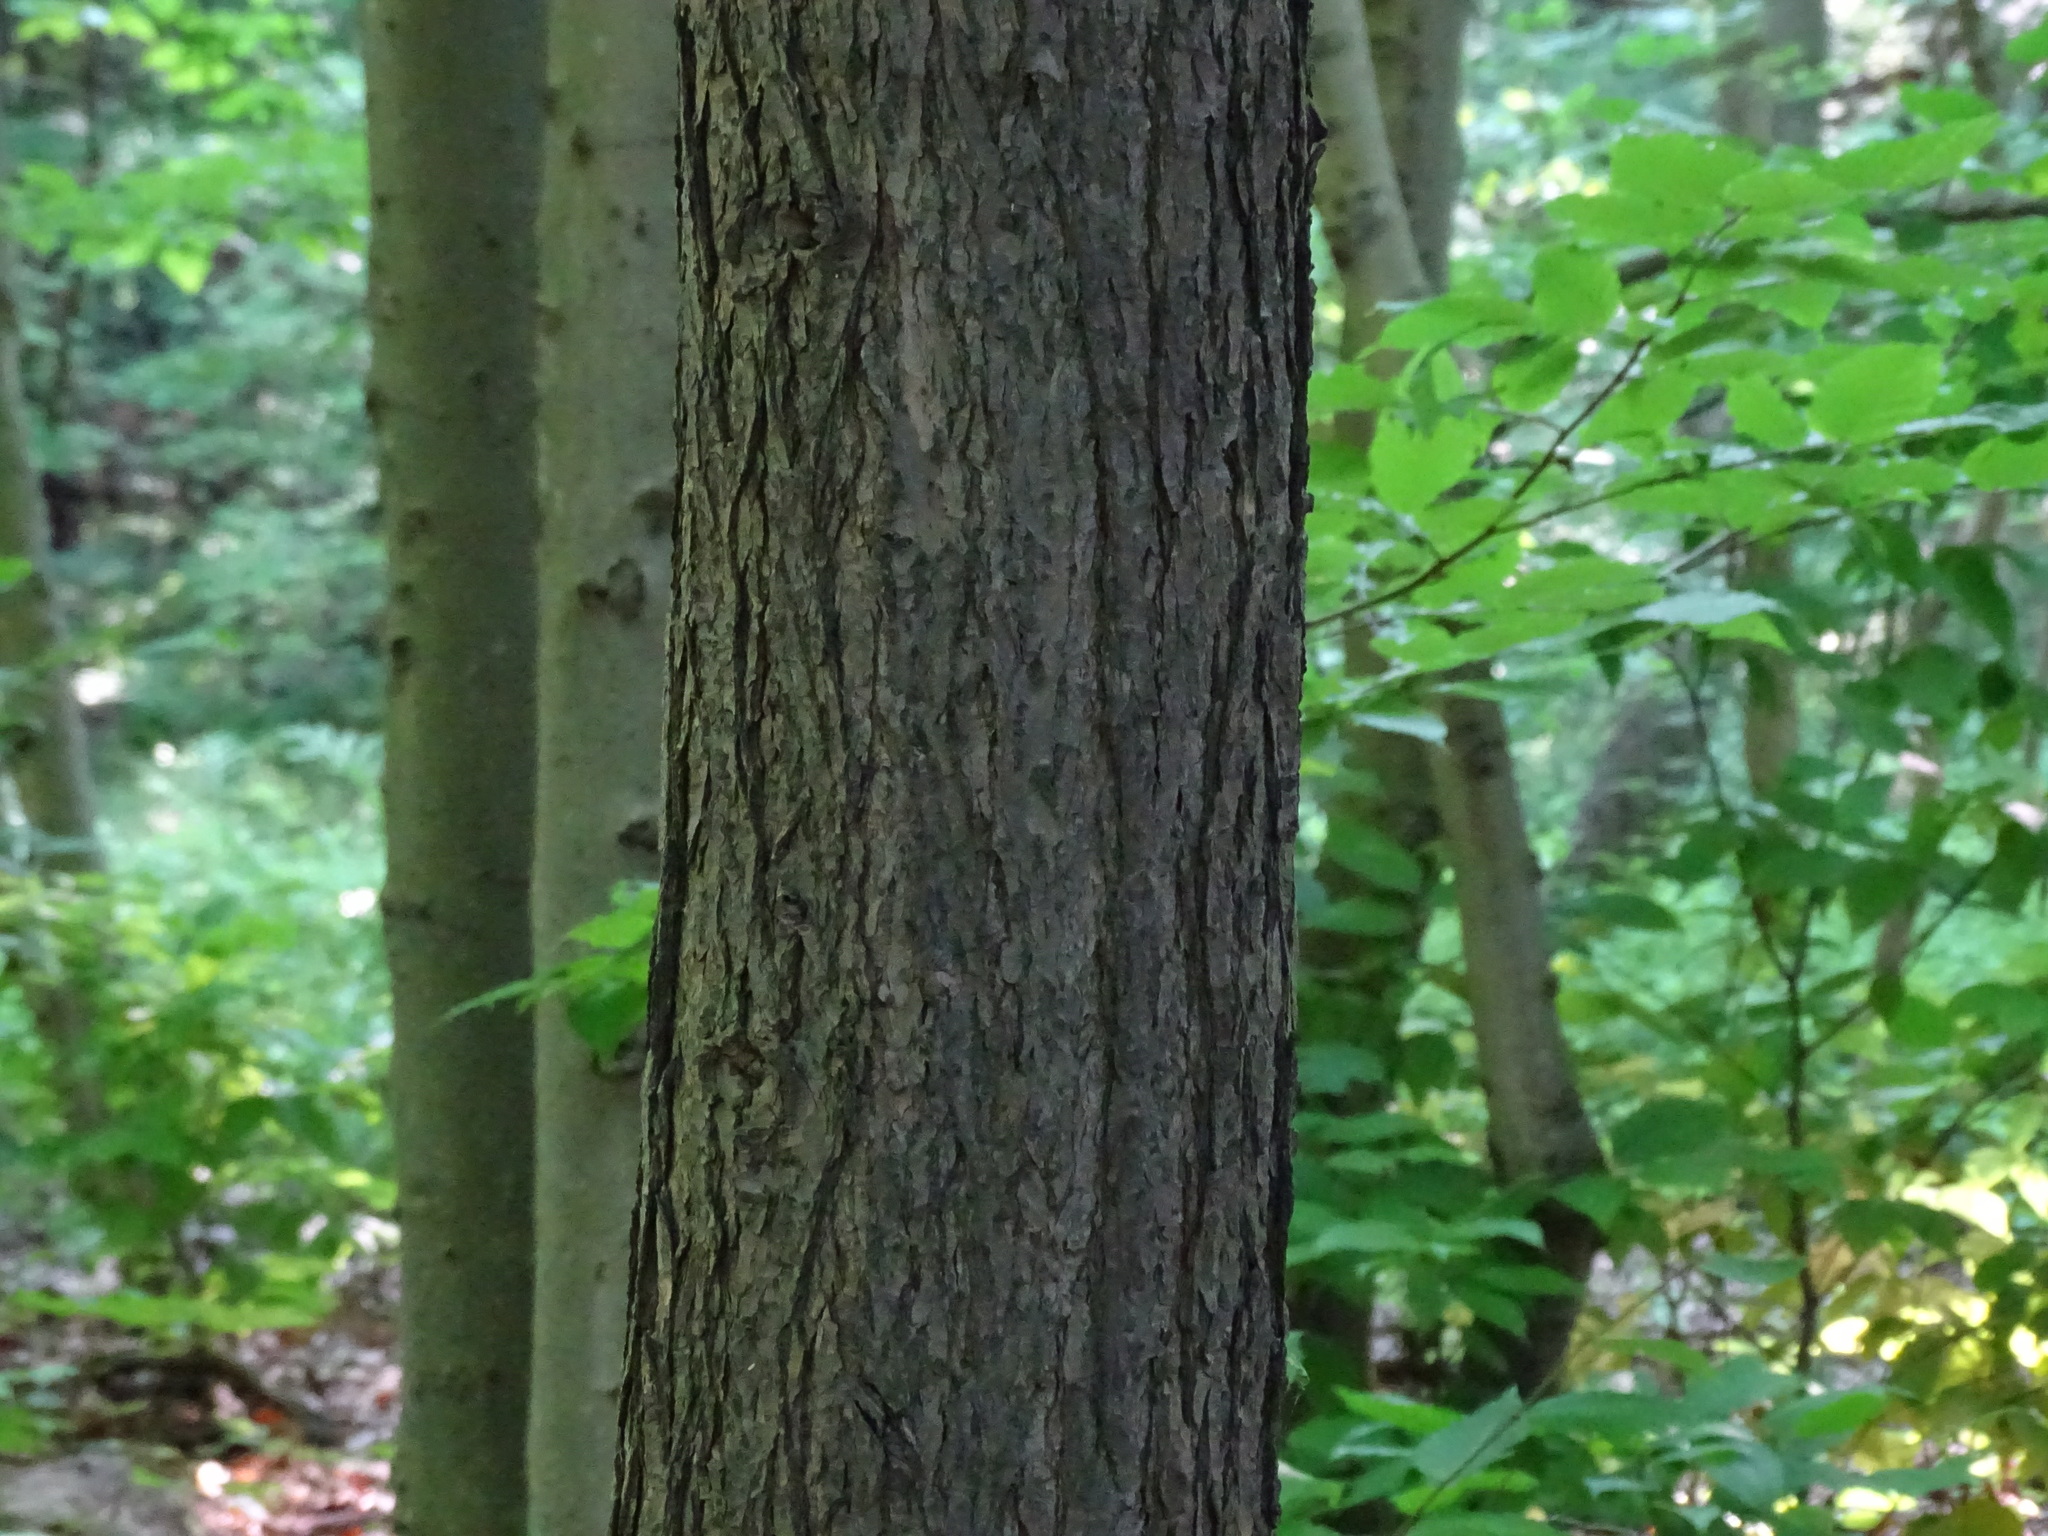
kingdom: Plantae
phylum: Tracheophyta
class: Pinopsida
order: Pinales
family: Pinaceae
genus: Tsuga
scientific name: Tsuga canadensis
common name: Eastern hemlock
